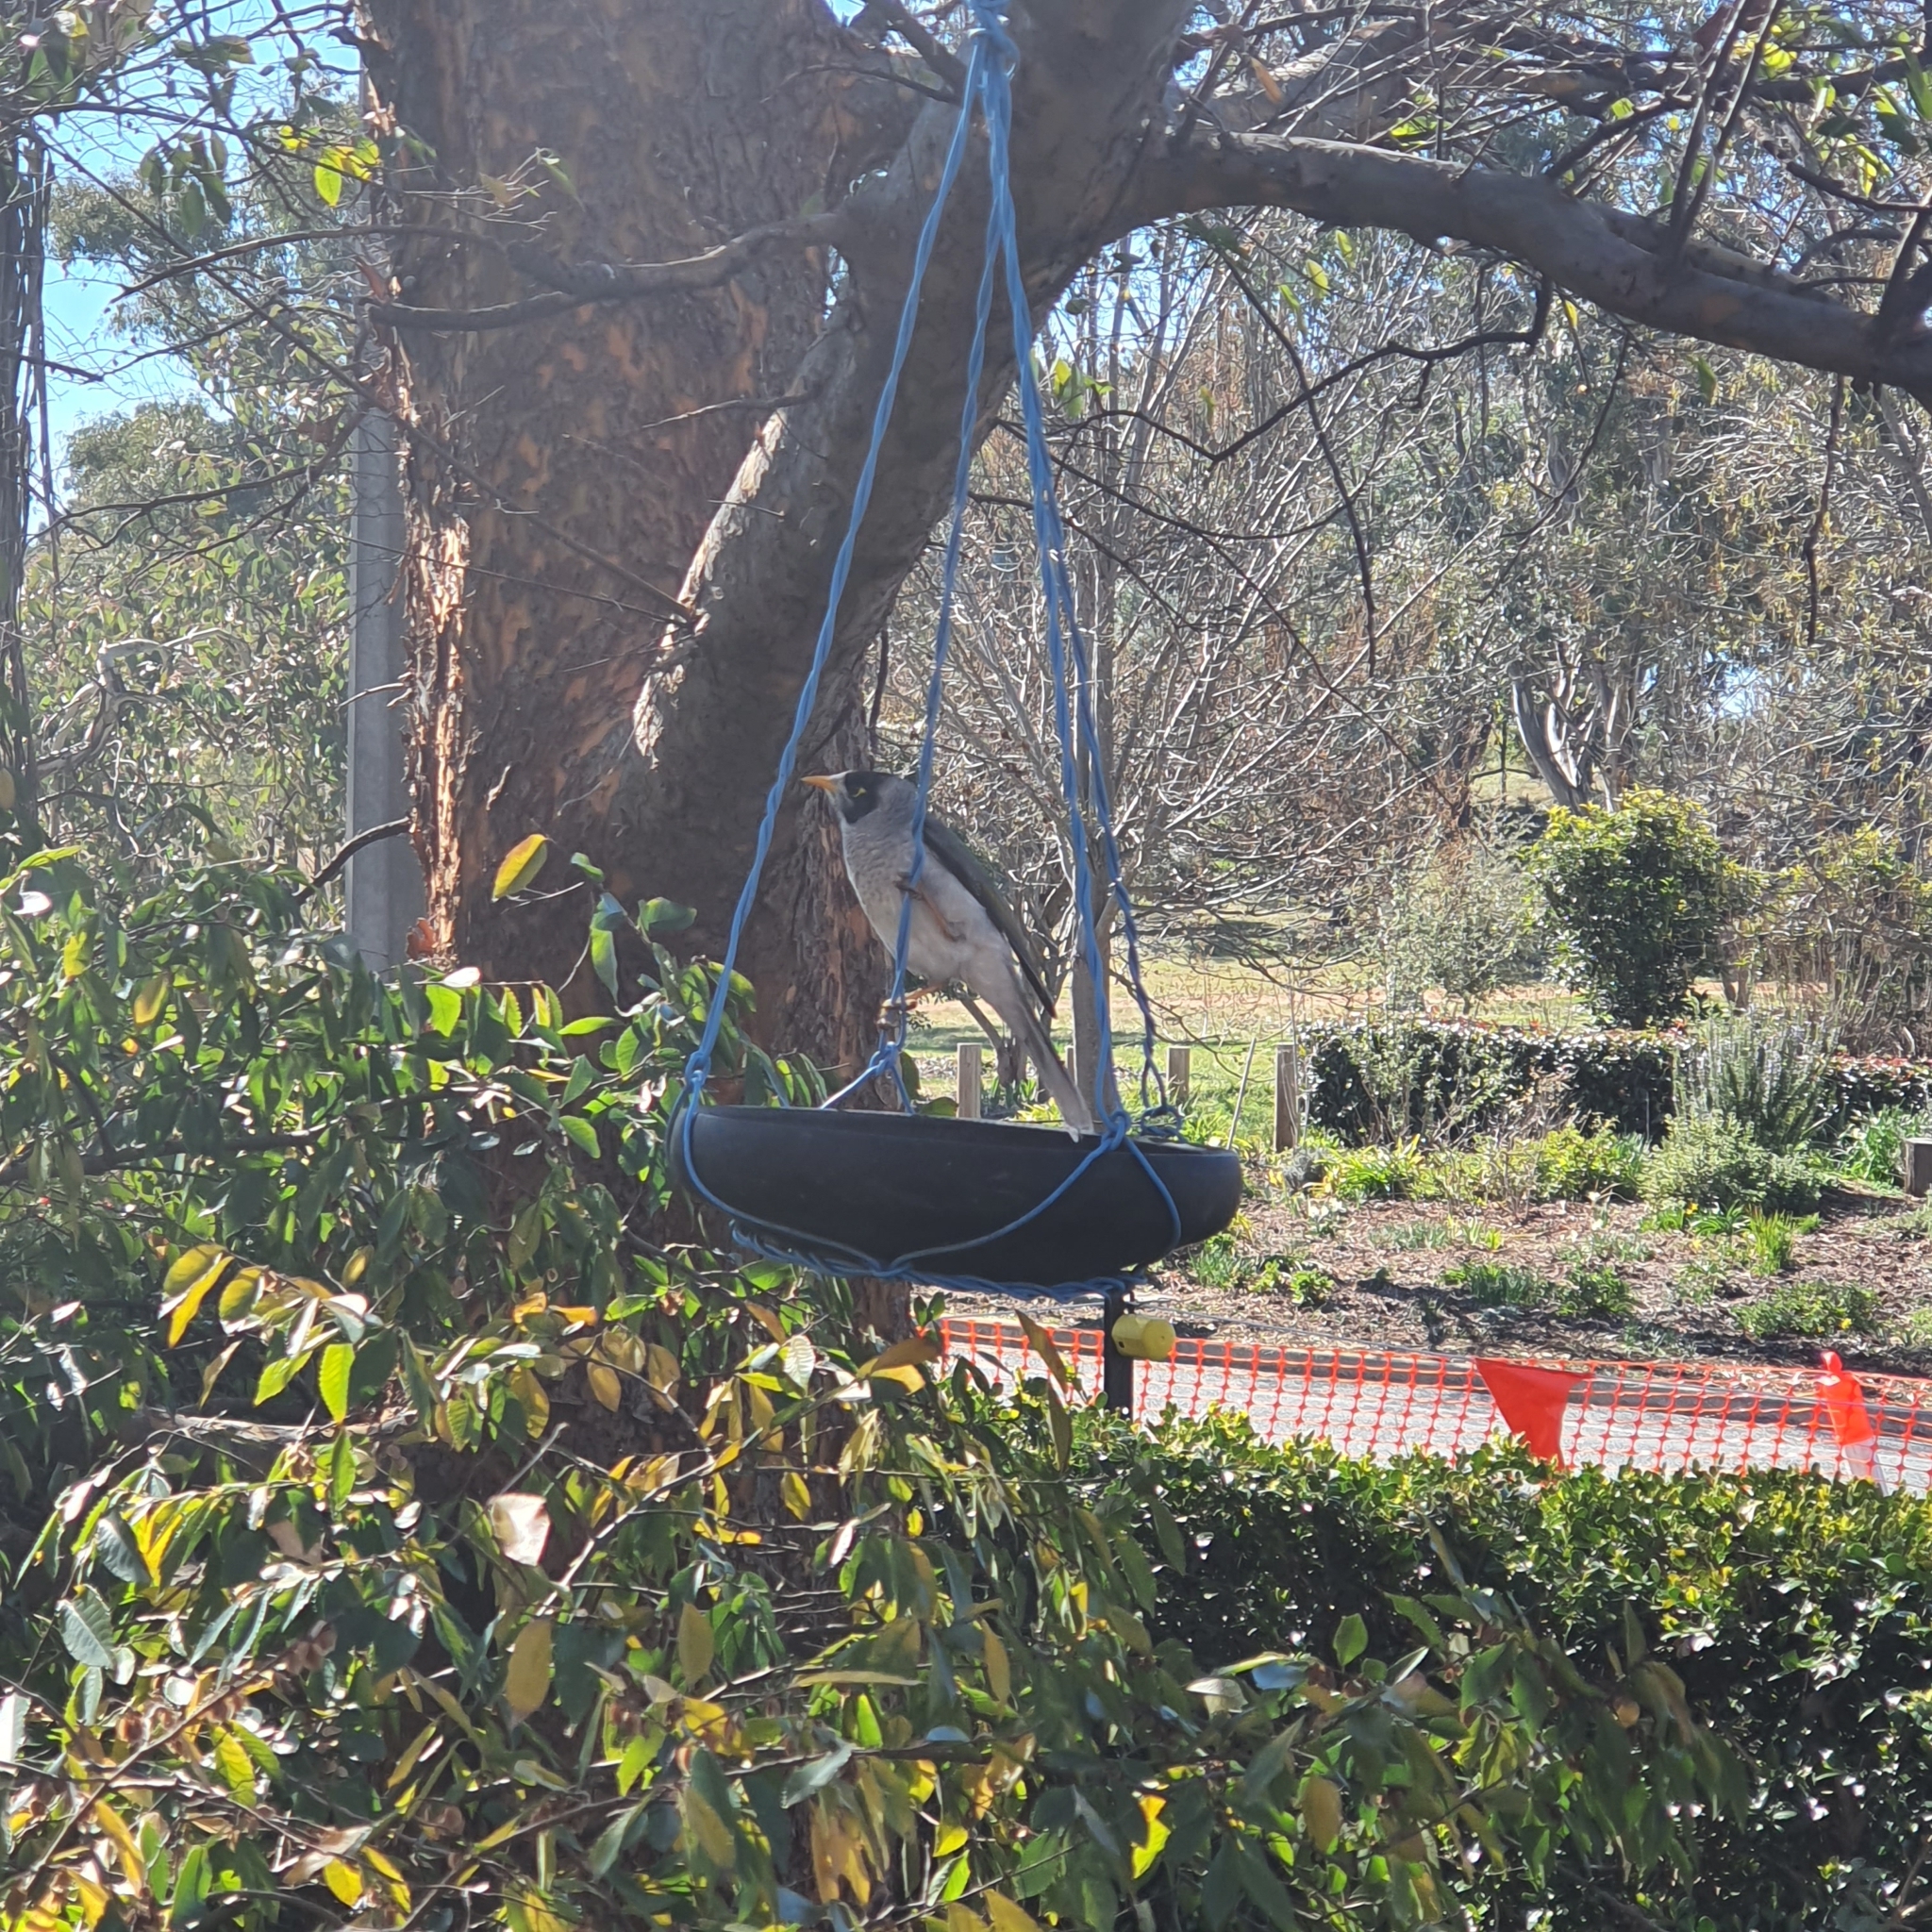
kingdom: Animalia
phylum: Chordata
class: Aves
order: Passeriformes
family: Meliphagidae
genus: Manorina
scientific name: Manorina melanocephala
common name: Noisy miner
